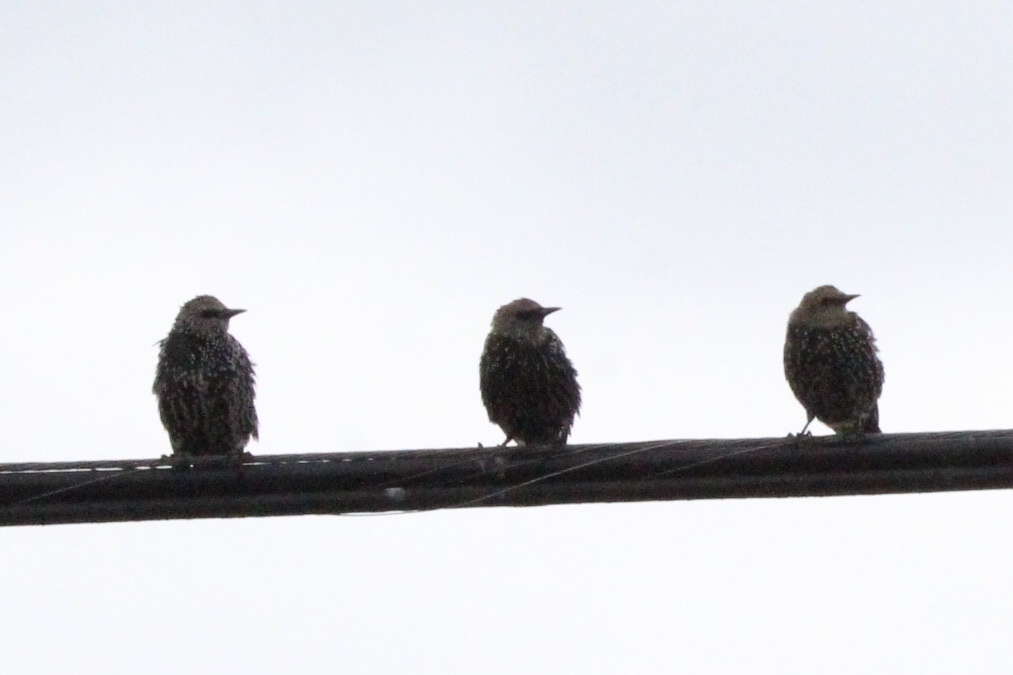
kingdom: Animalia
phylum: Chordata
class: Aves
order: Passeriformes
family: Sturnidae
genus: Sturnus
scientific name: Sturnus vulgaris
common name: Common starling
